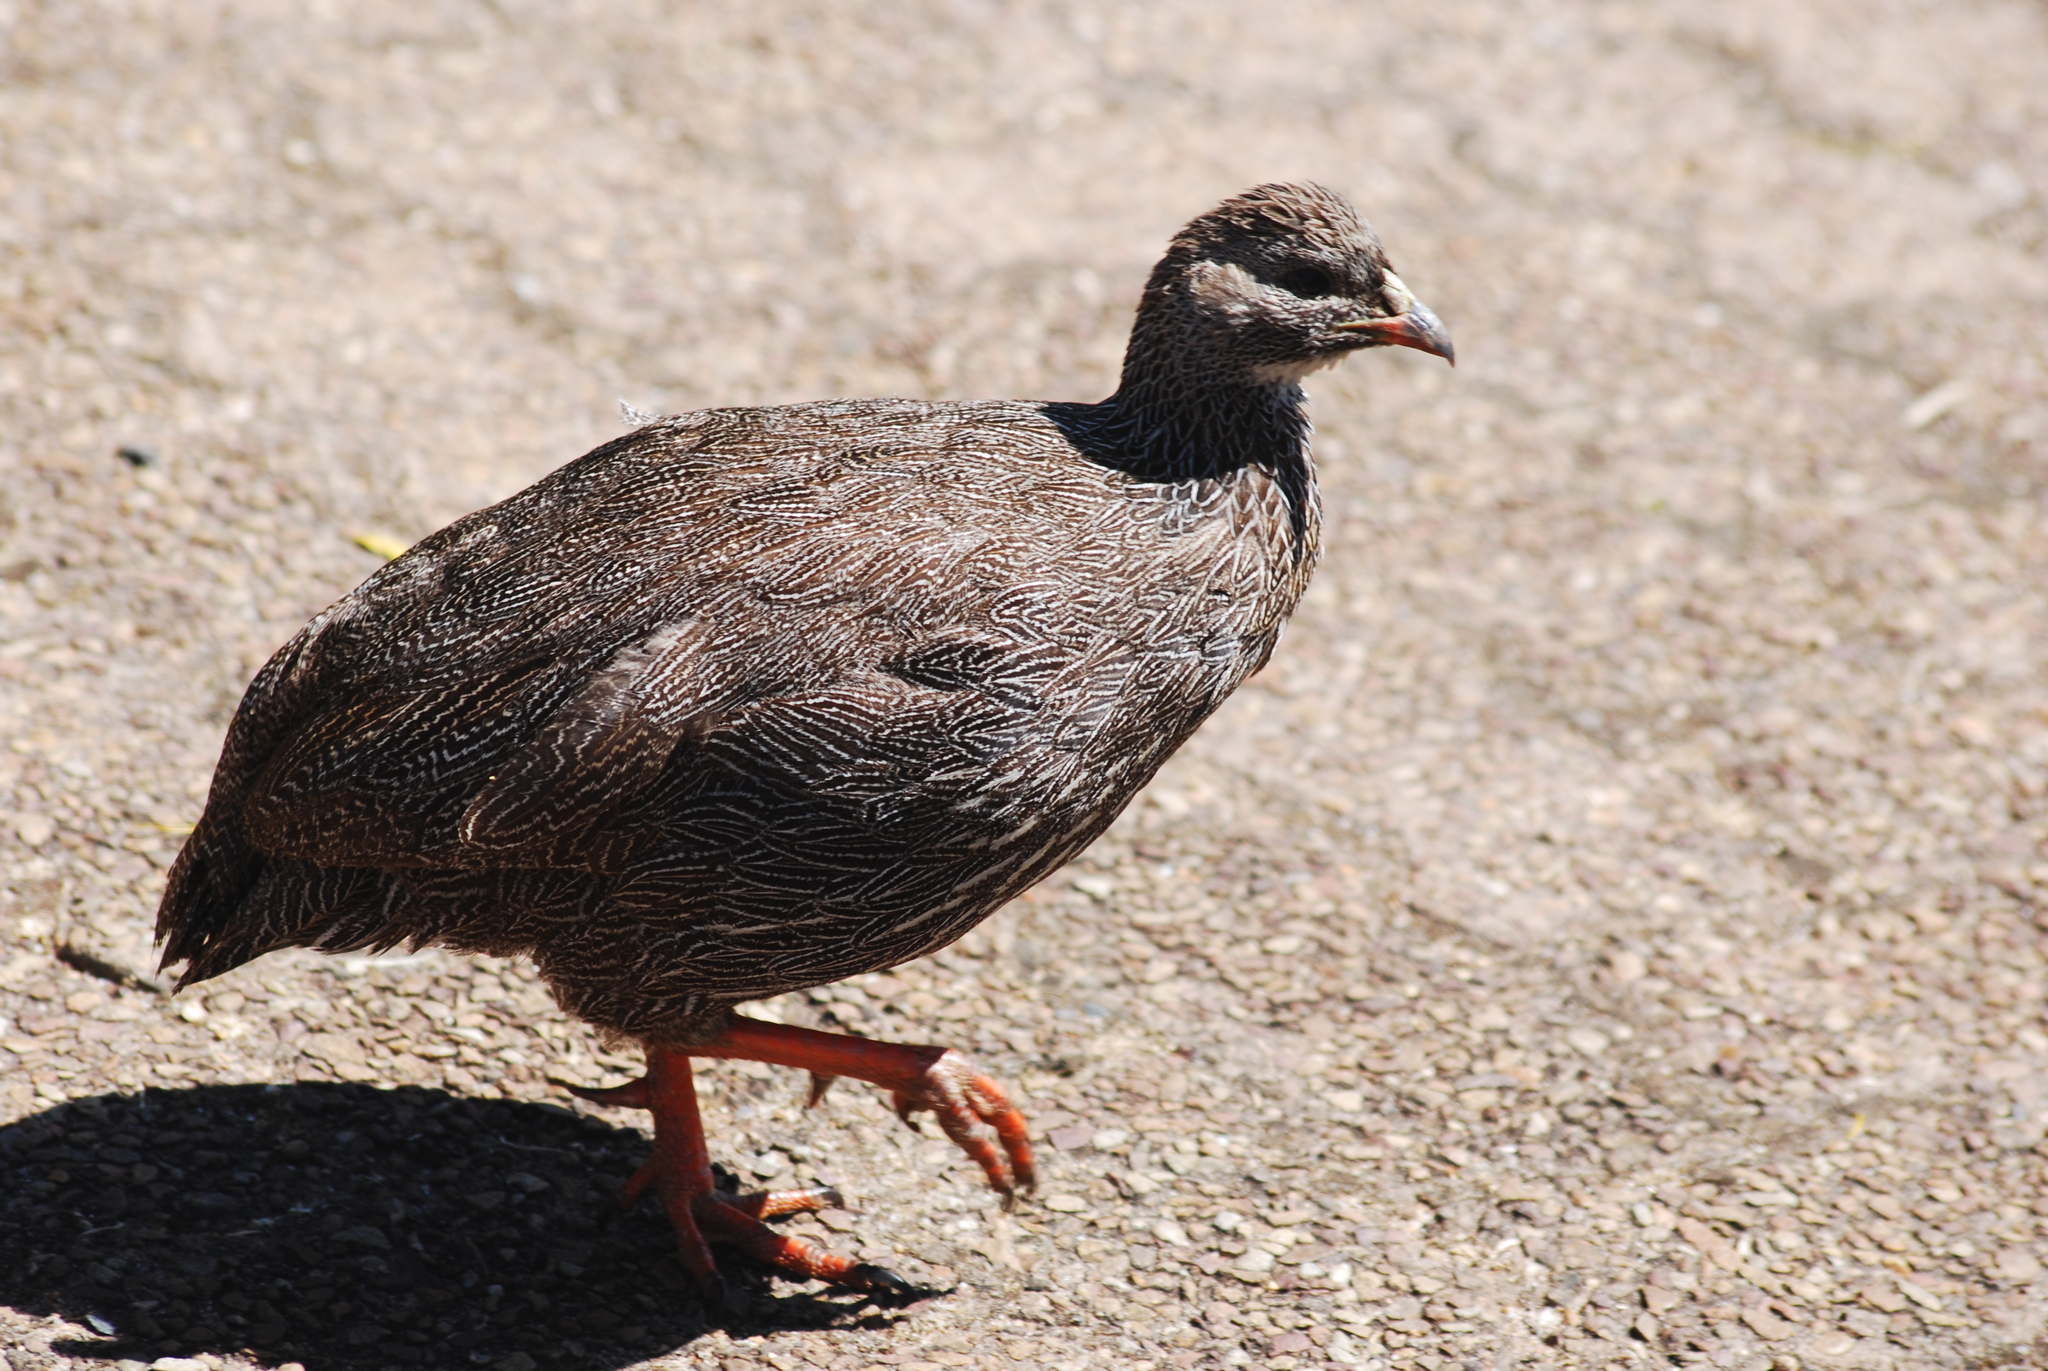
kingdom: Animalia
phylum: Chordata
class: Aves
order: Galliformes
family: Phasianidae
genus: Pternistis
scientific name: Pternistis capensis
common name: Cape spurfowl
